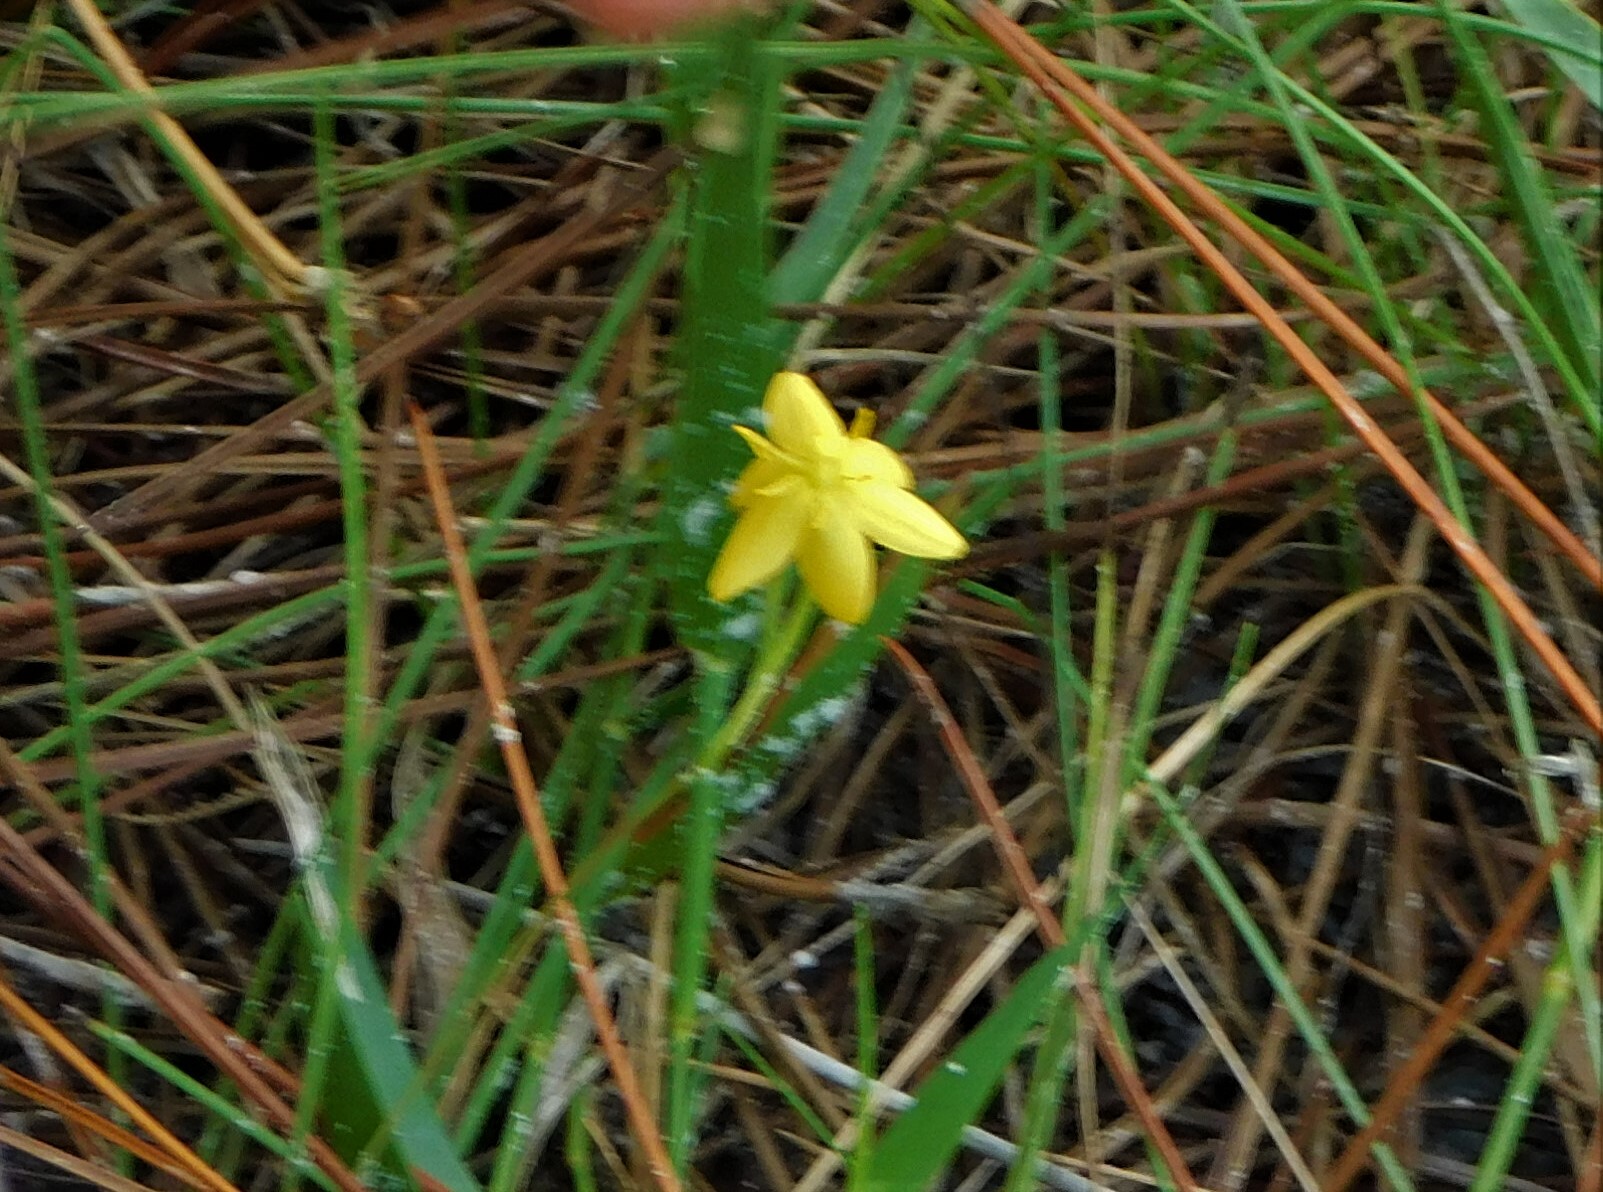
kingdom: Plantae
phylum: Tracheophyta
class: Liliopsida
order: Asparagales
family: Hypoxidaceae
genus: Hypoxis
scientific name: Hypoxis juncea
